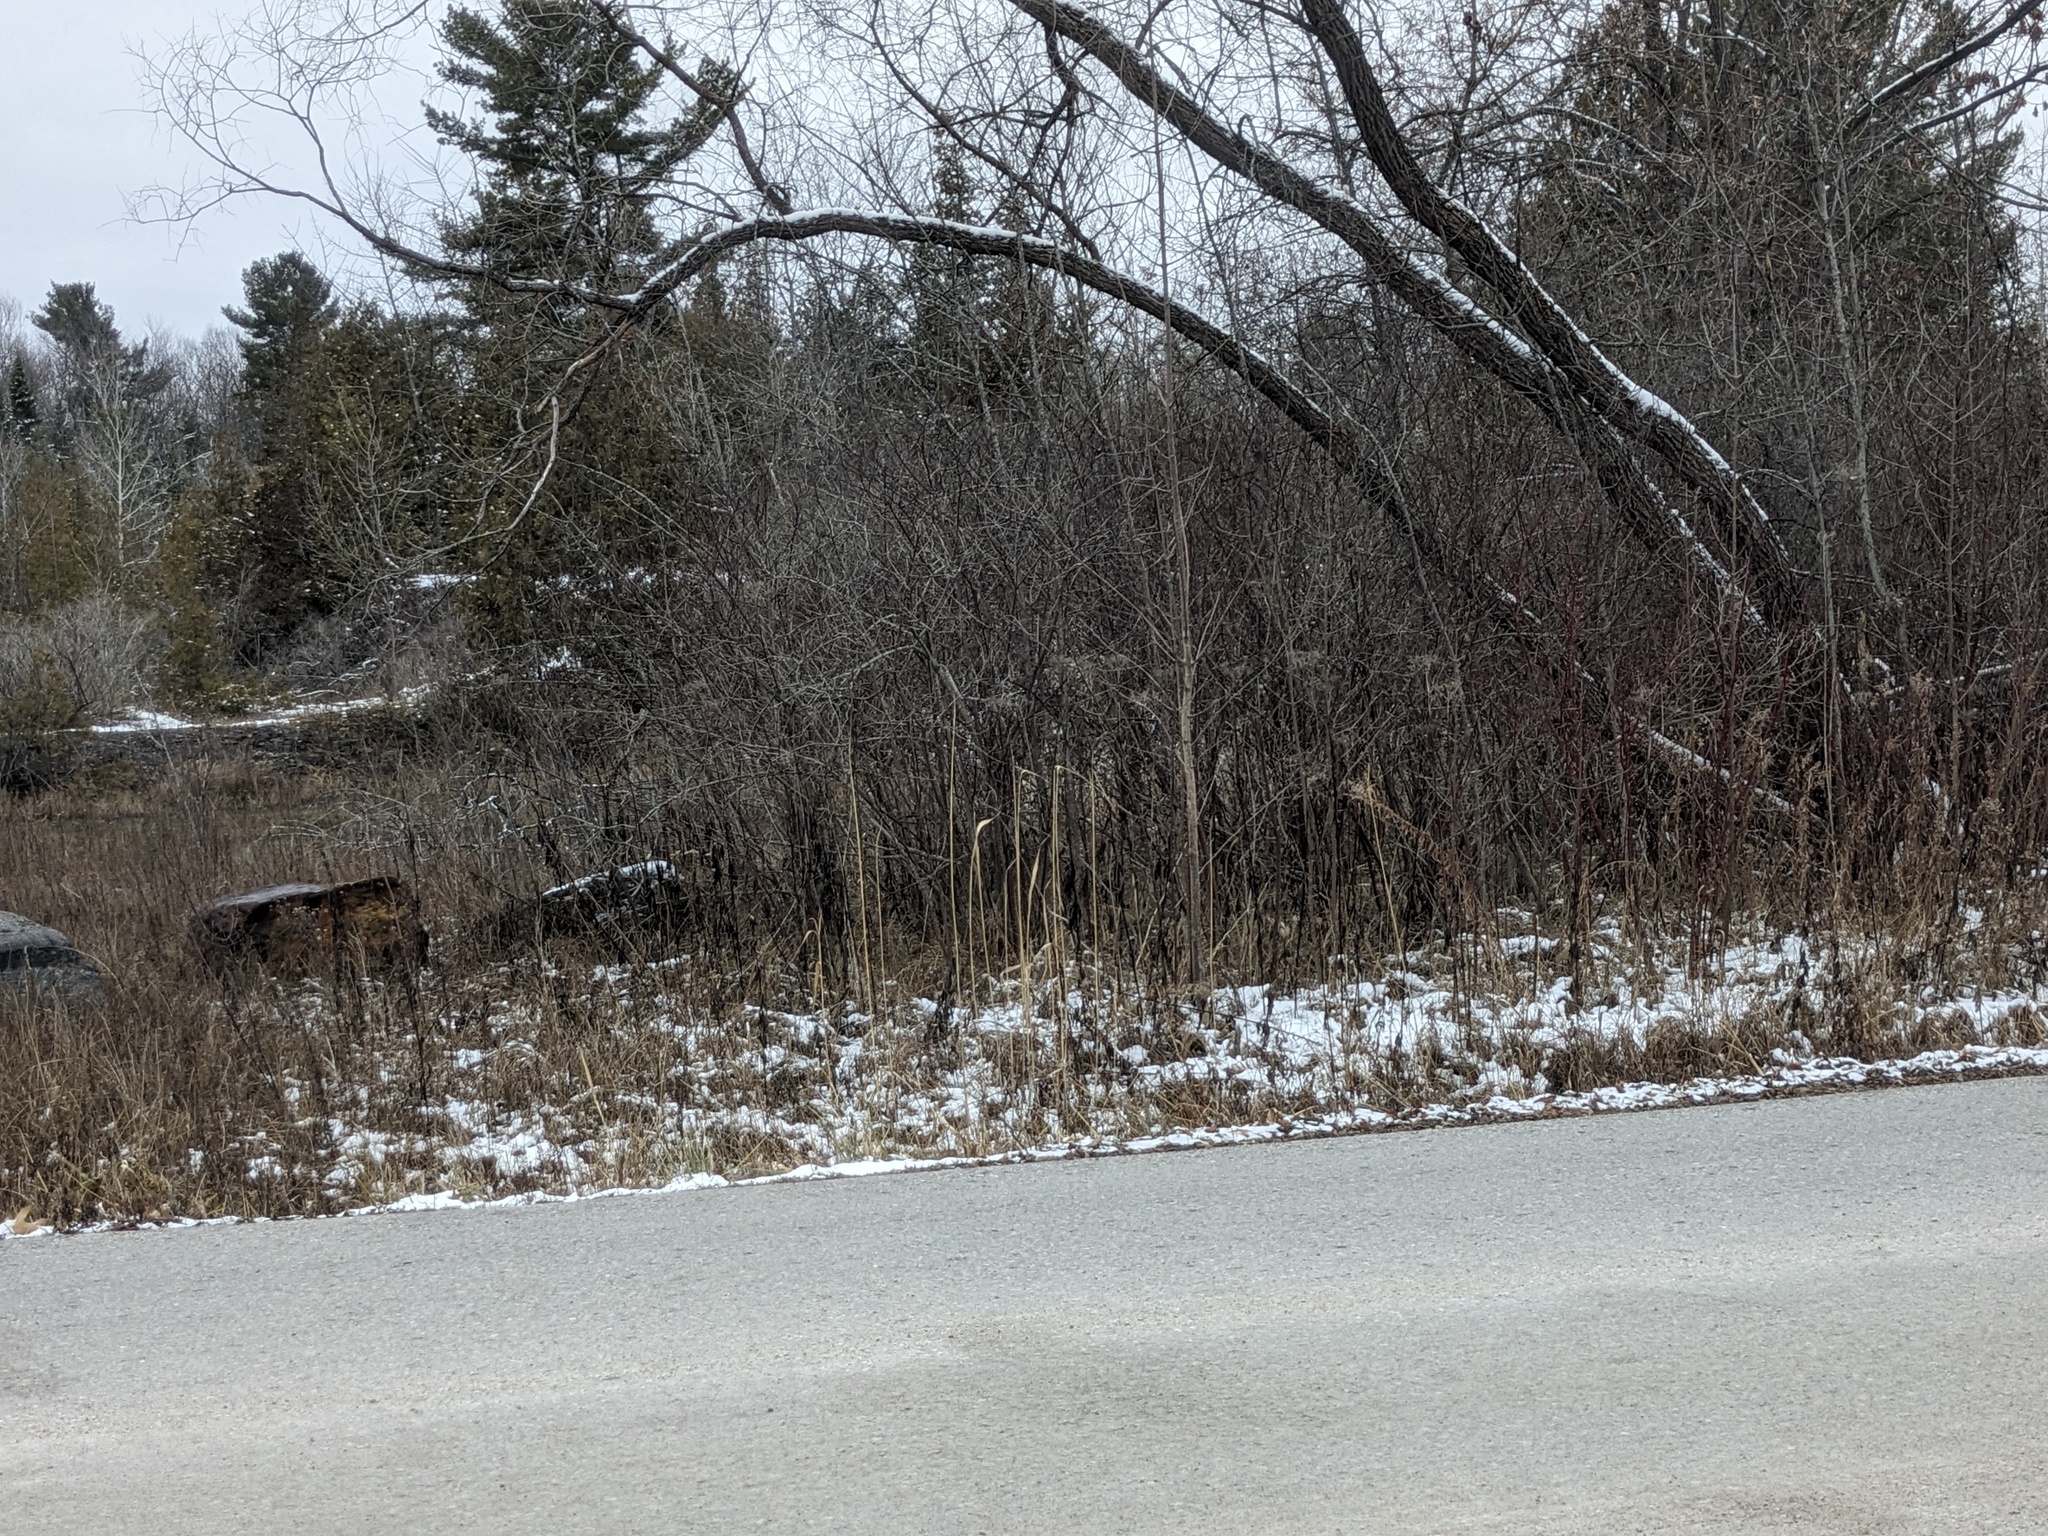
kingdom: Plantae
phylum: Tracheophyta
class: Liliopsida
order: Poales
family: Poaceae
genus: Phragmites
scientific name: Phragmites australis
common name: Common reed
